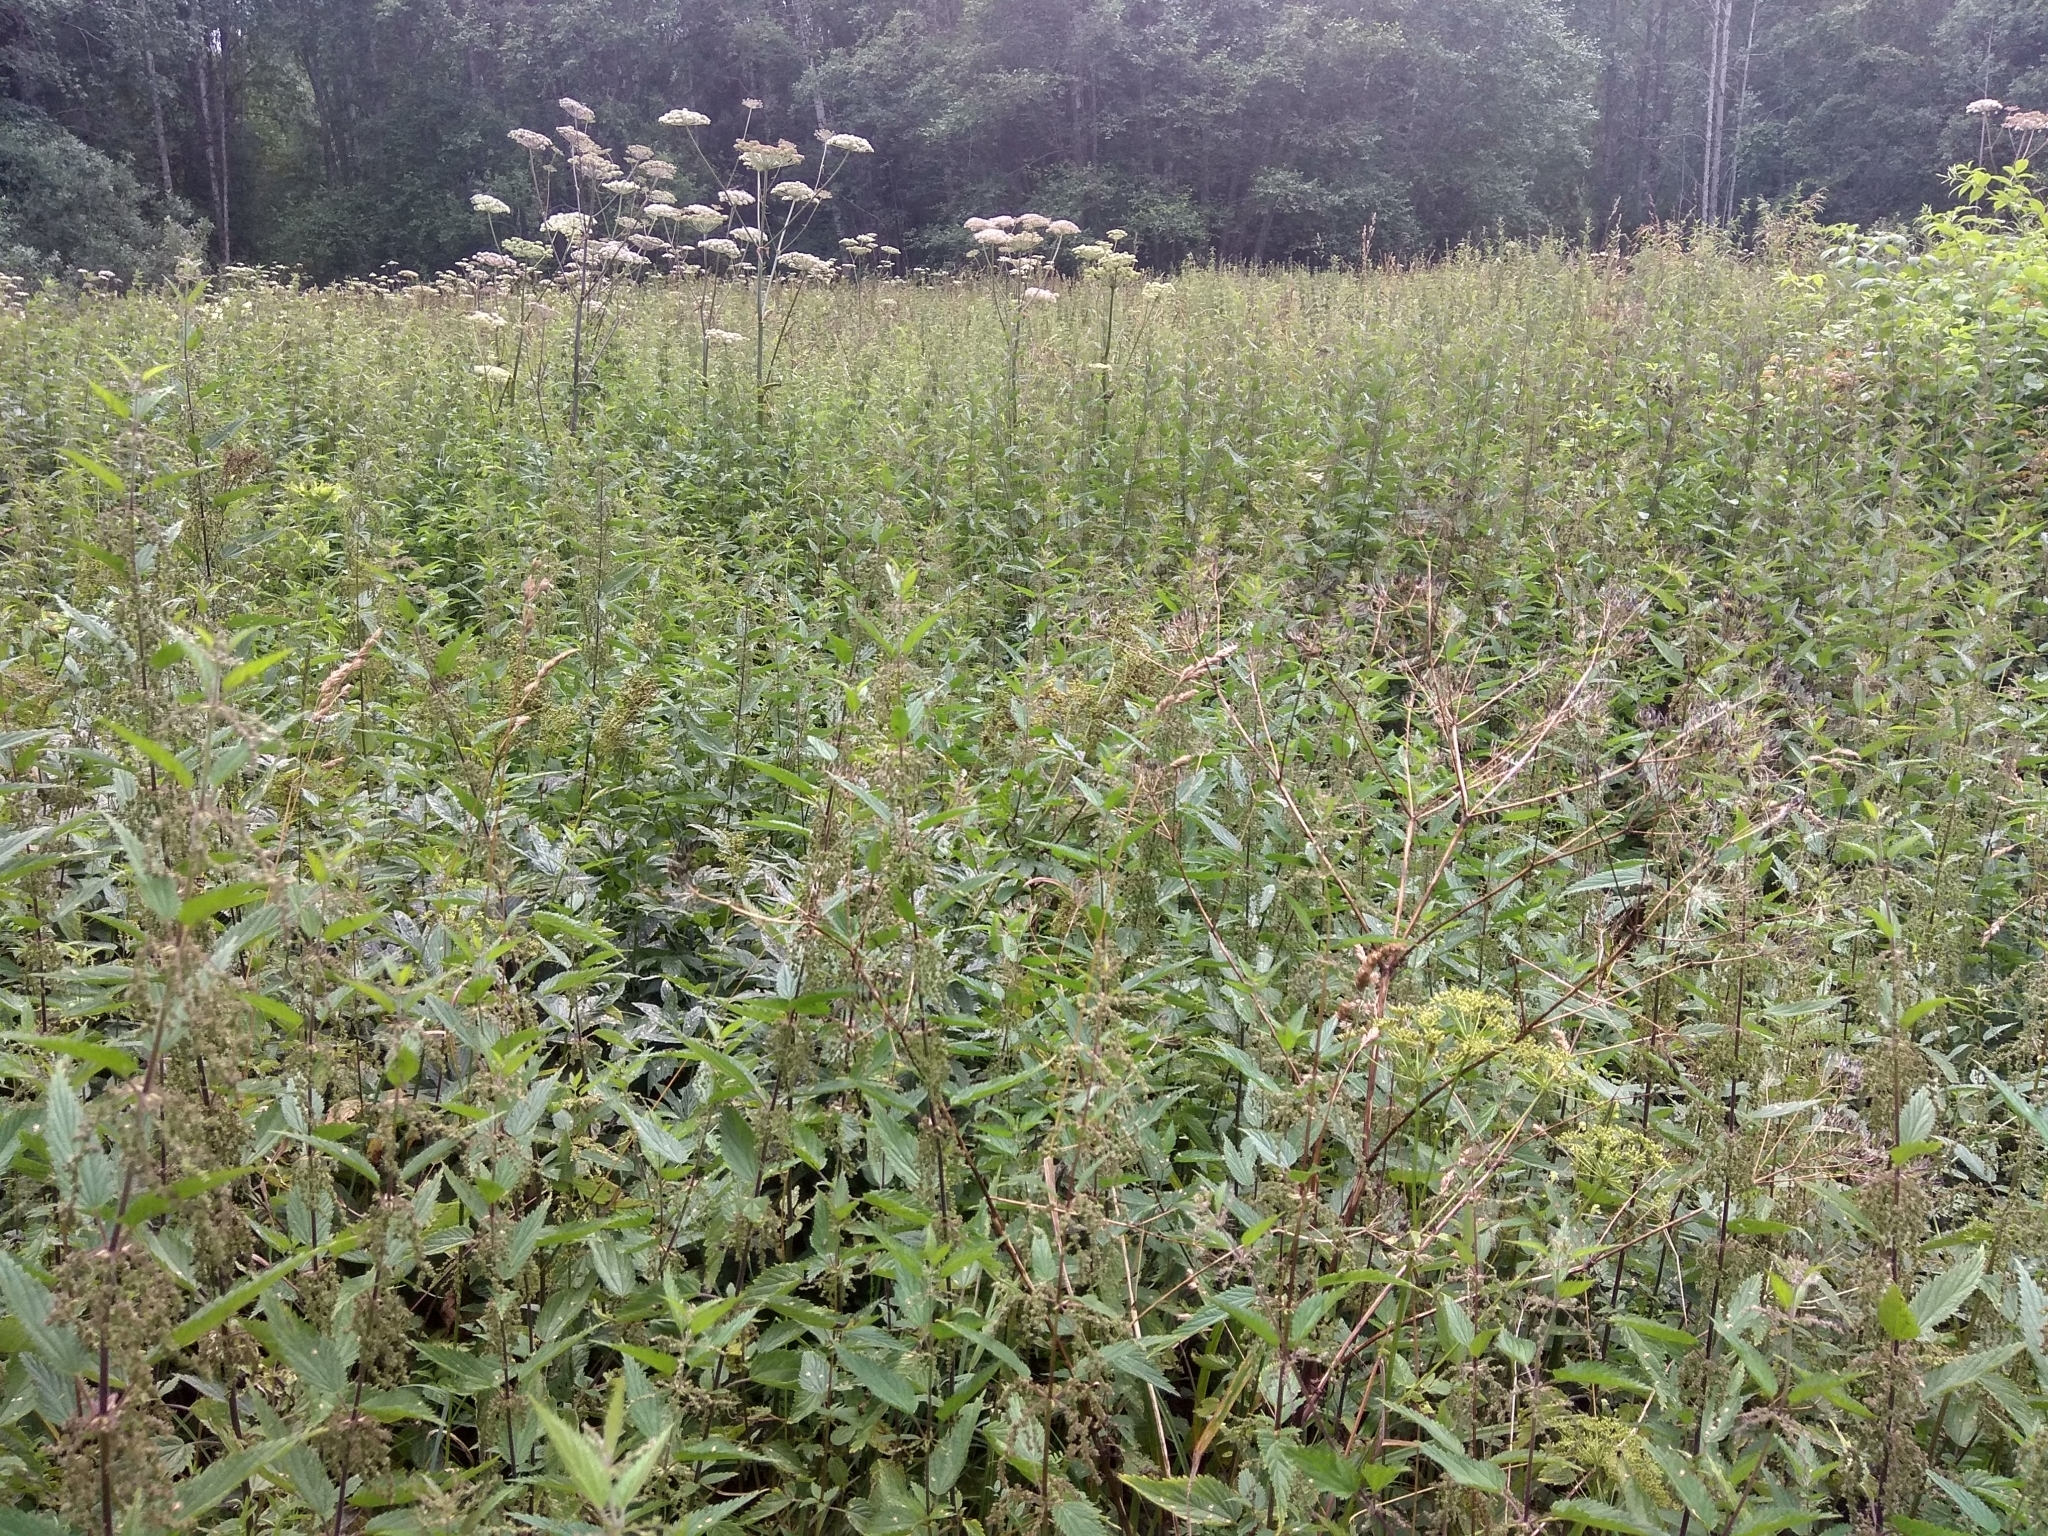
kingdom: Plantae
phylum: Tracheophyta
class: Magnoliopsida
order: Rosales
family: Urticaceae
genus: Urtica
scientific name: Urtica dioica
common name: Common nettle
